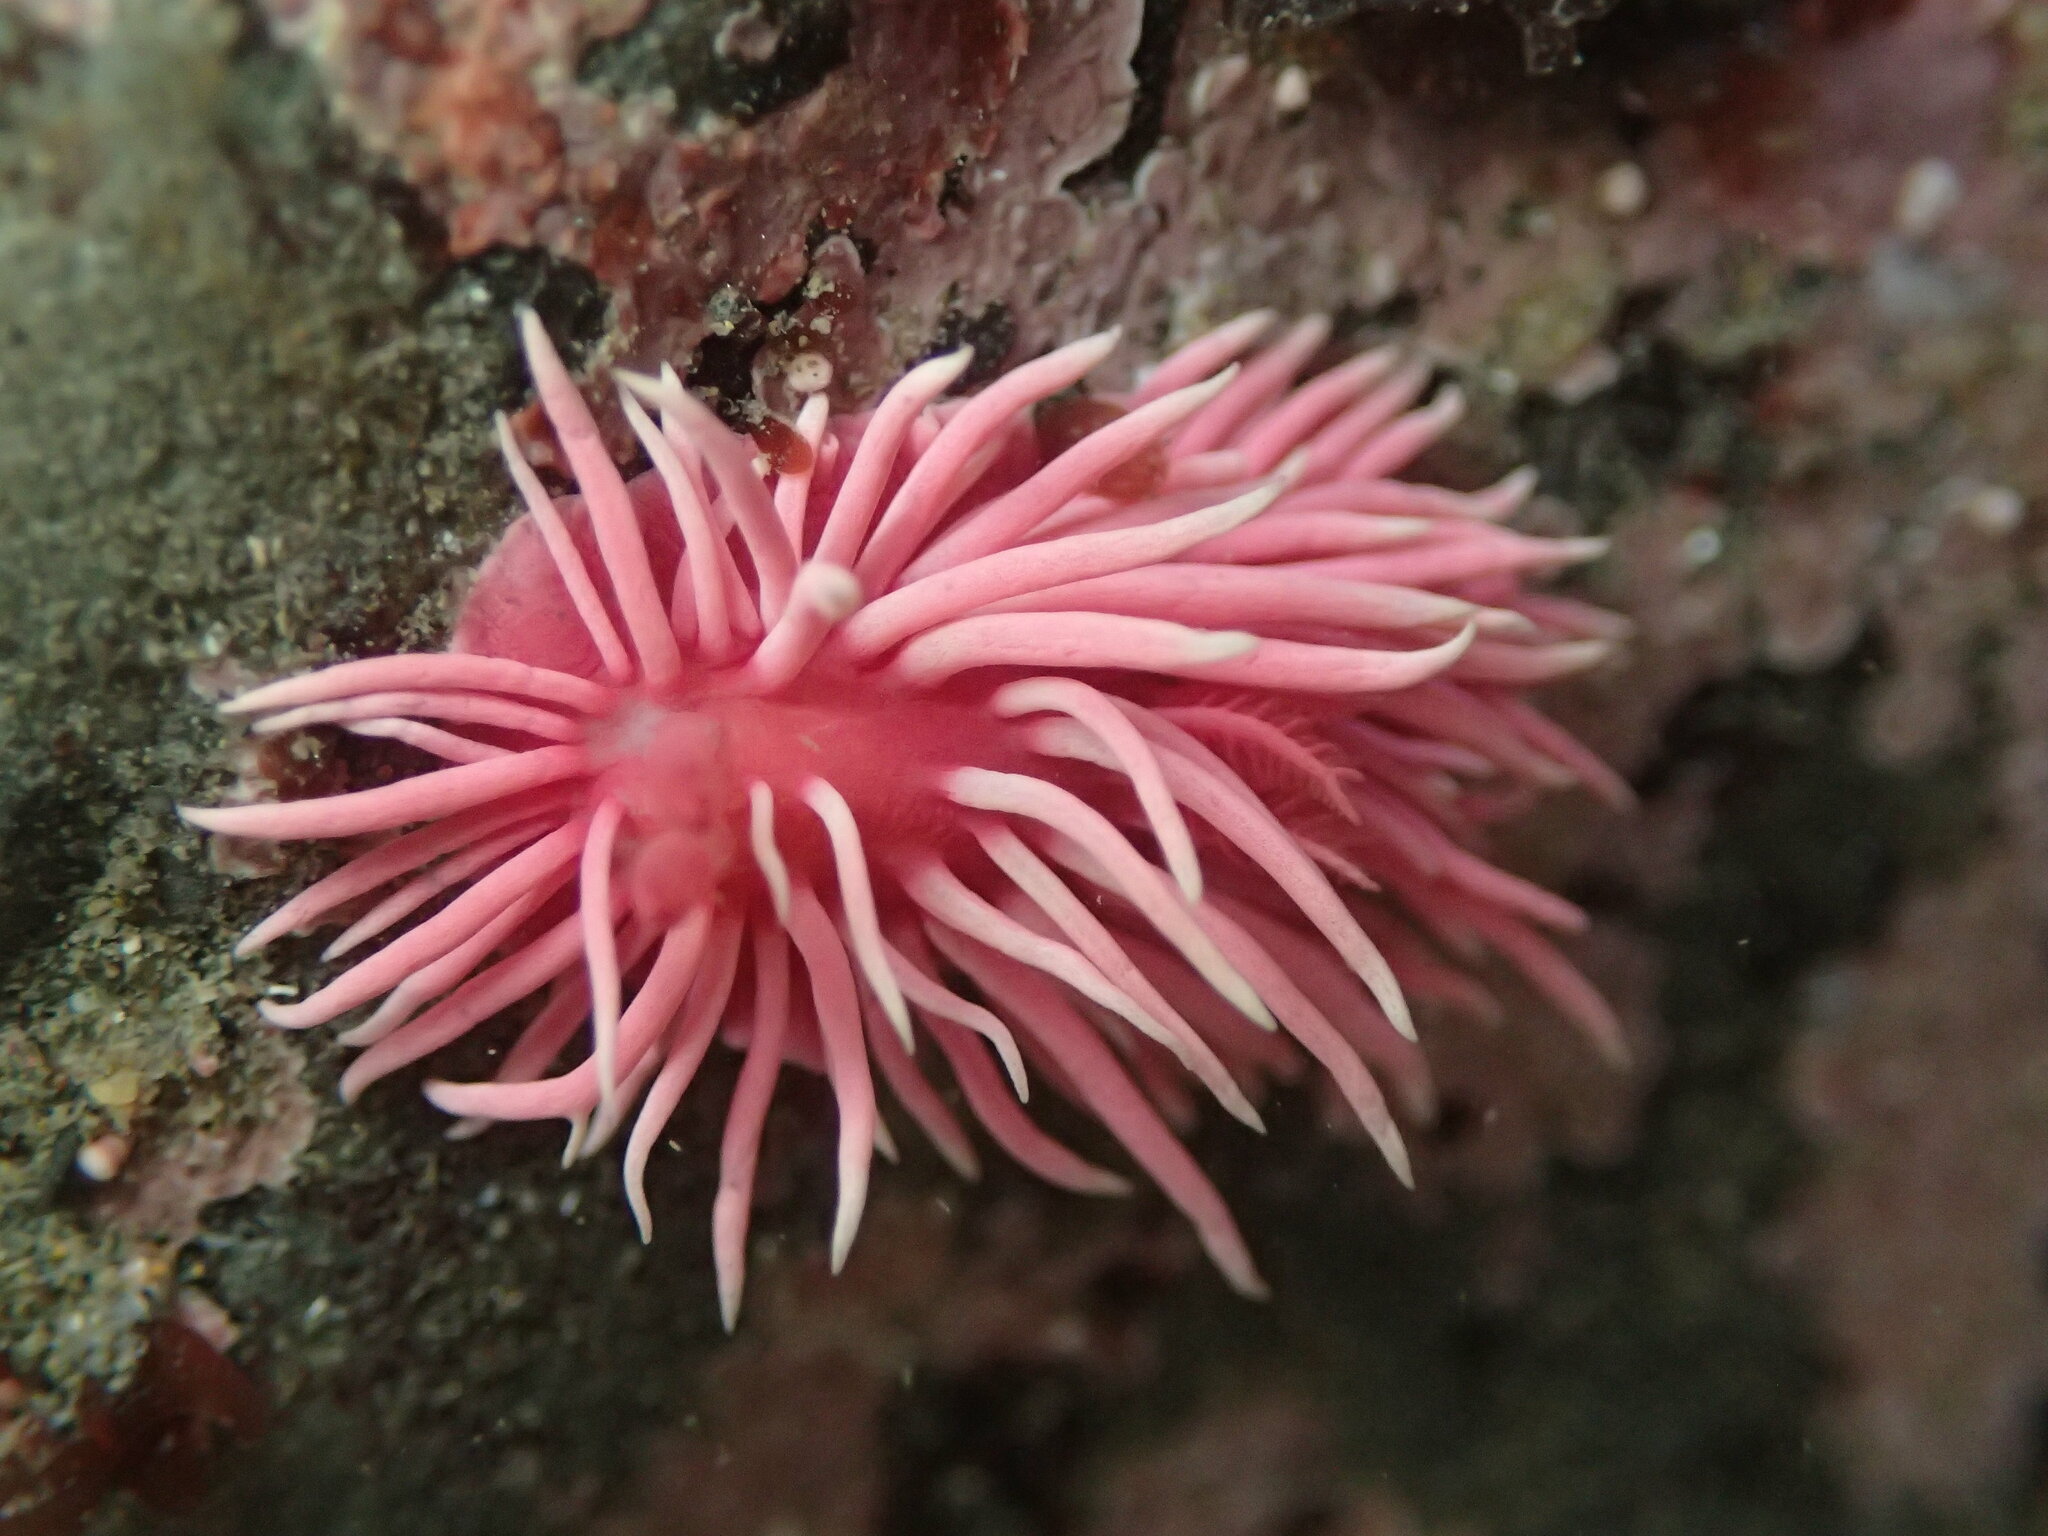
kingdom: Animalia
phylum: Mollusca
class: Gastropoda
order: Nudibranchia
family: Goniodorididae
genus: Okenia
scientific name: Okenia
